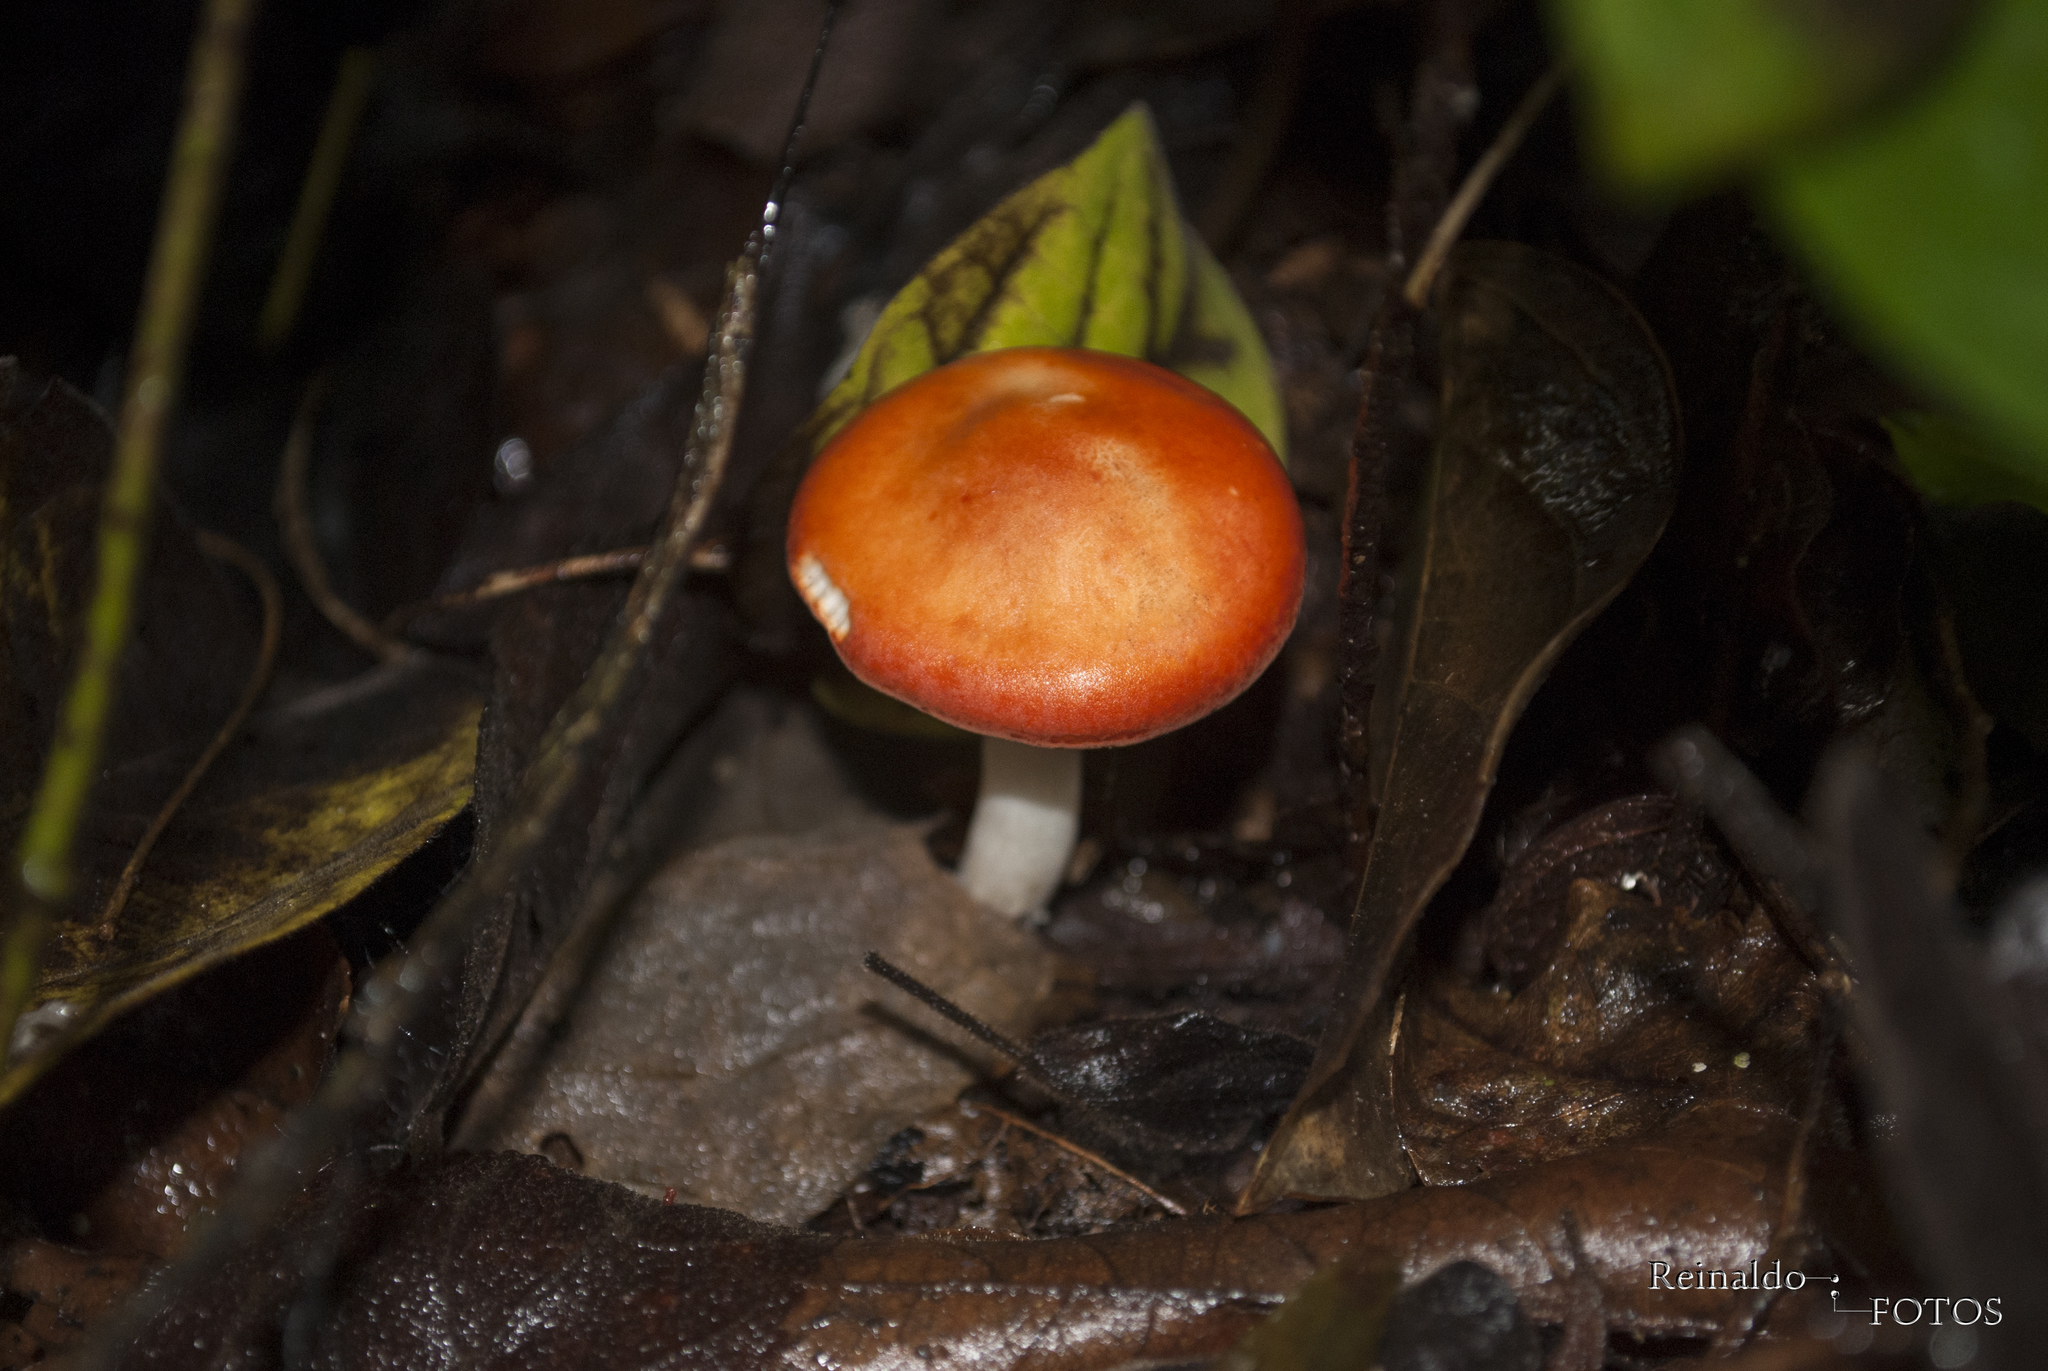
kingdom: Fungi
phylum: Basidiomycota
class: Agaricomycetes
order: Agaricales
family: Tricholomataceae
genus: Leucopaxillus
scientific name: Leucopaxillus gracillimus
